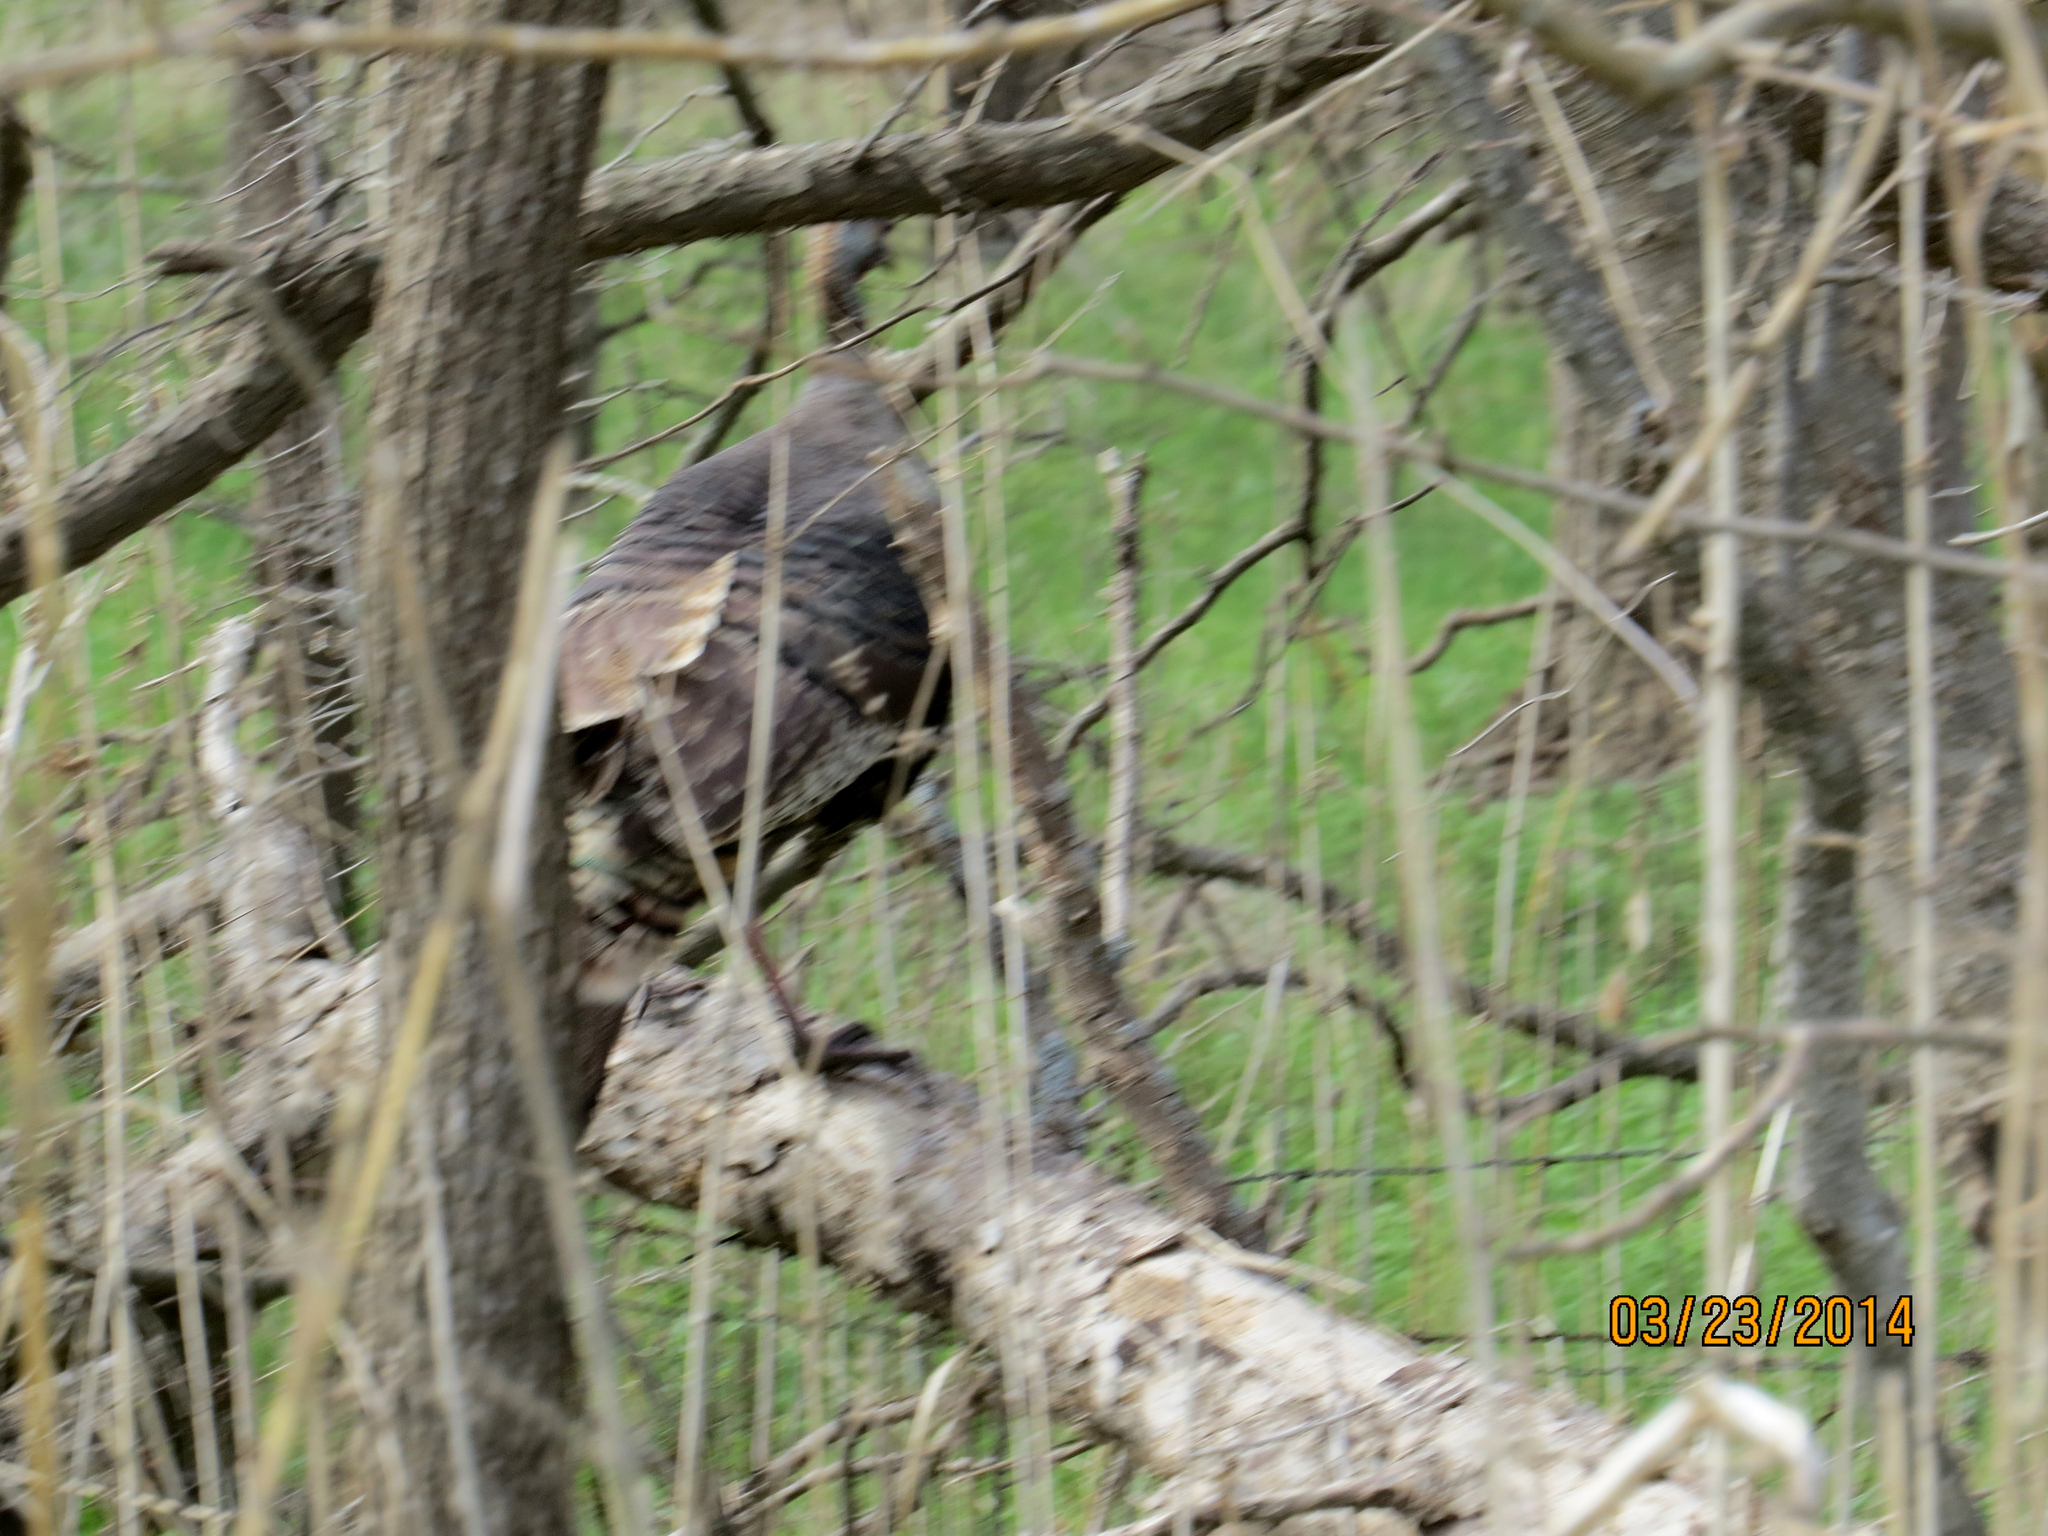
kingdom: Animalia
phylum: Chordata
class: Aves
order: Galliformes
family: Phasianidae
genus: Meleagris
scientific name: Meleagris gallopavo
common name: Wild turkey
